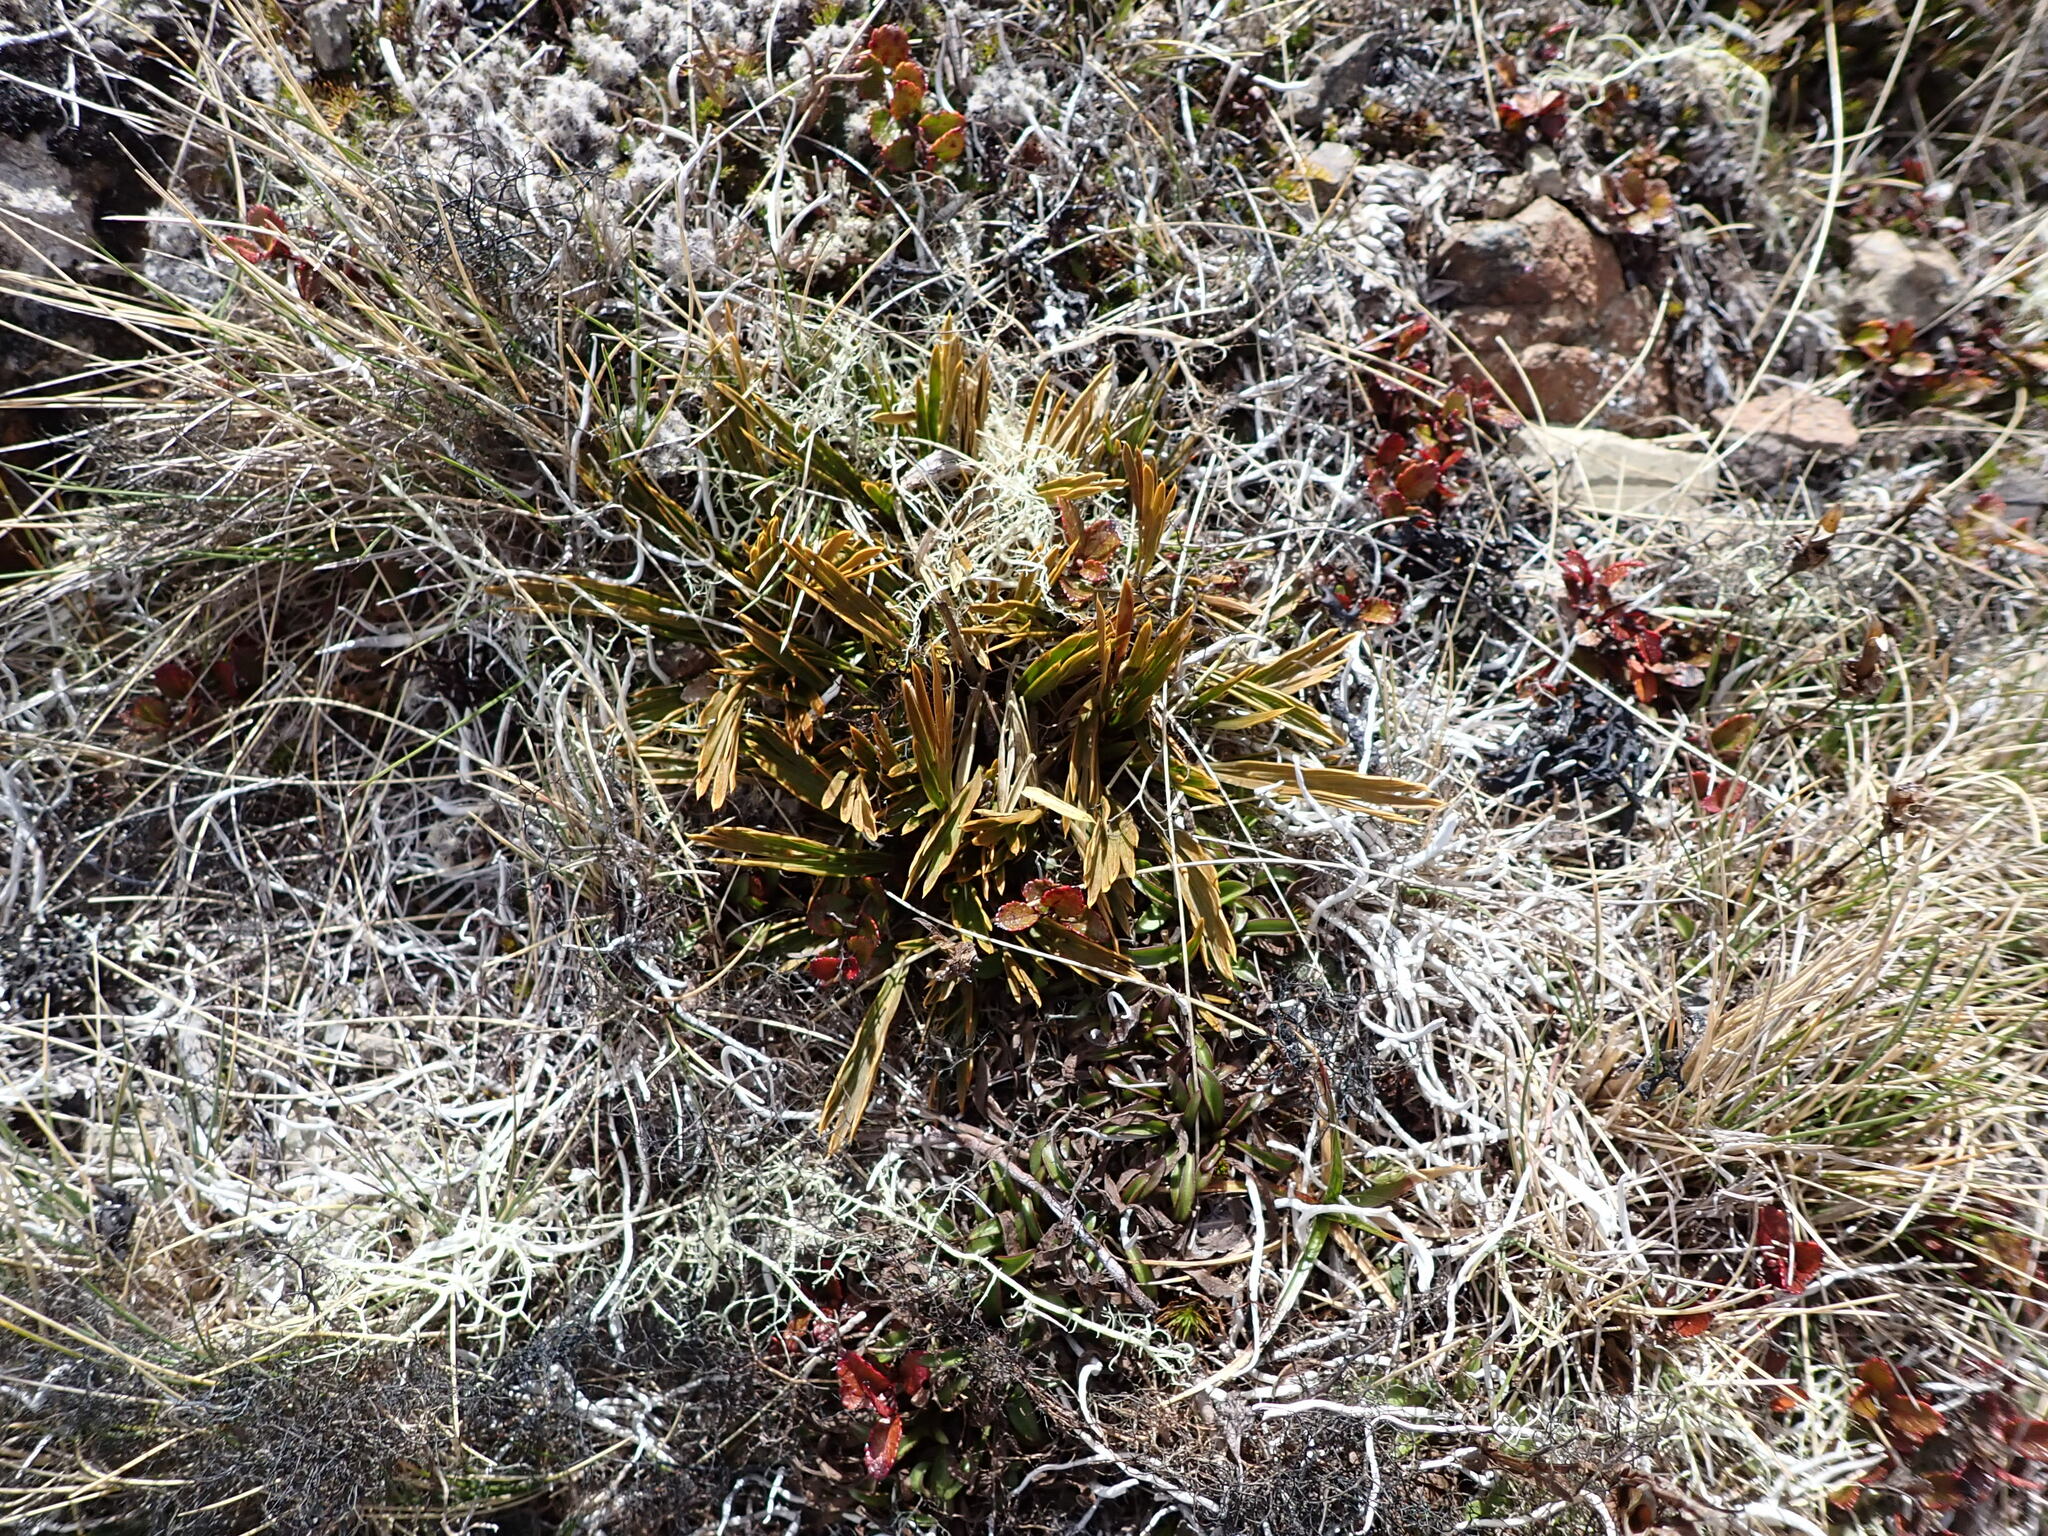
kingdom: Plantae
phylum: Tracheophyta
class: Magnoliopsida
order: Apiales
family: Apiaceae
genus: Aciphylla
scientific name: Aciphylla monroi
